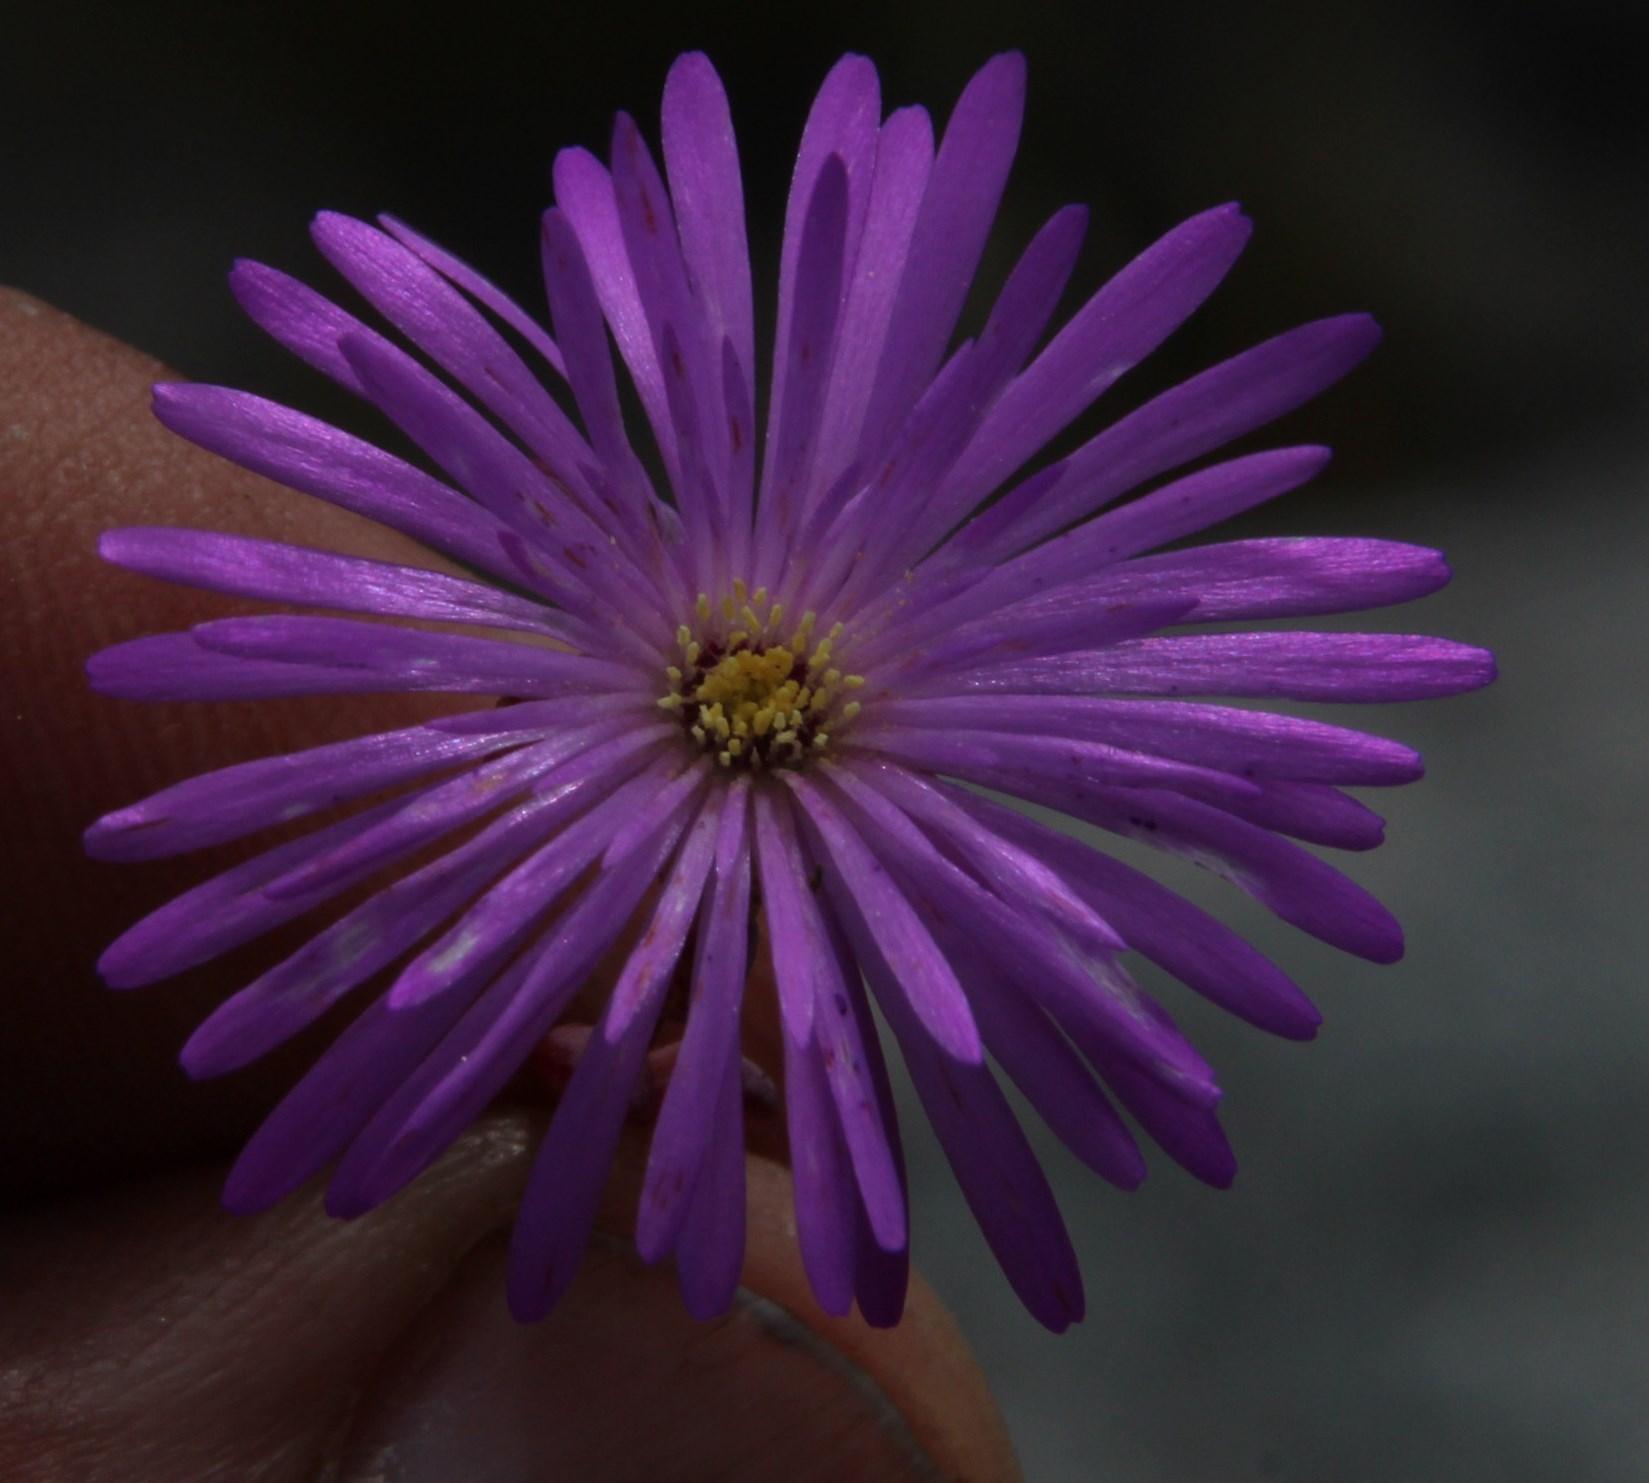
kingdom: Plantae
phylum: Tracheophyta
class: Magnoliopsida
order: Caryophyllales
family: Aizoaceae
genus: Lampranthus
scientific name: Lampranthus falcatus
